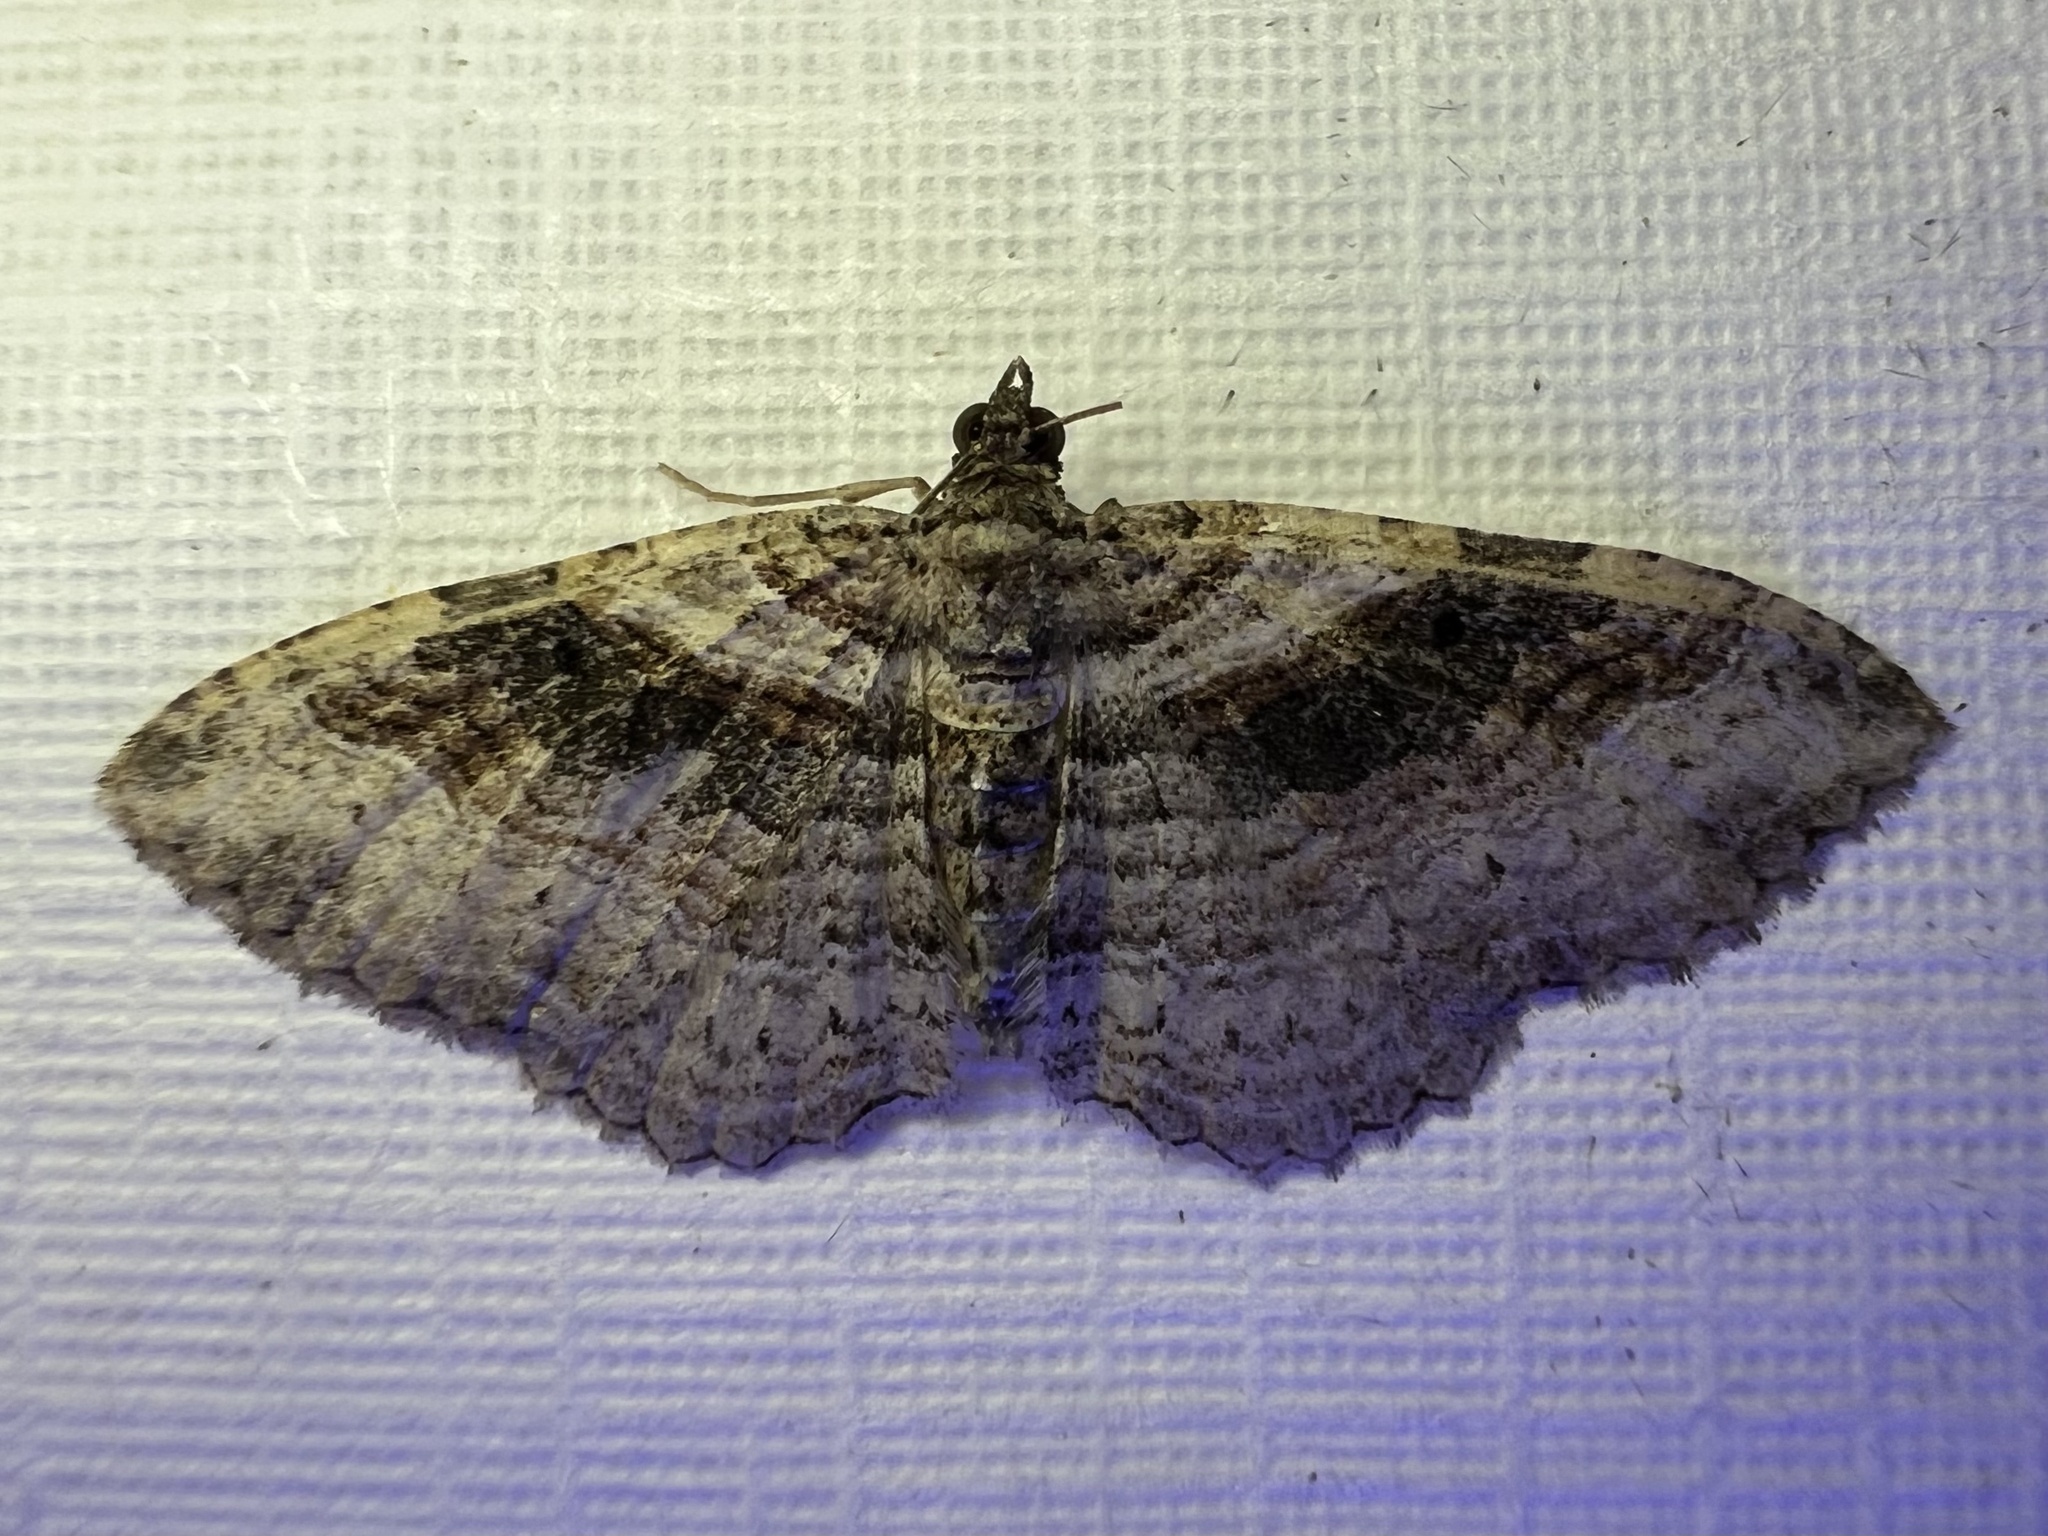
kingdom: Animalia
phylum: Arthropoda
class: Insecta
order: Lepidoptera
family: Geometridae
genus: Costaconvexa
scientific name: Costaconvexa centrostrigaria
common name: Bent-line carpet
